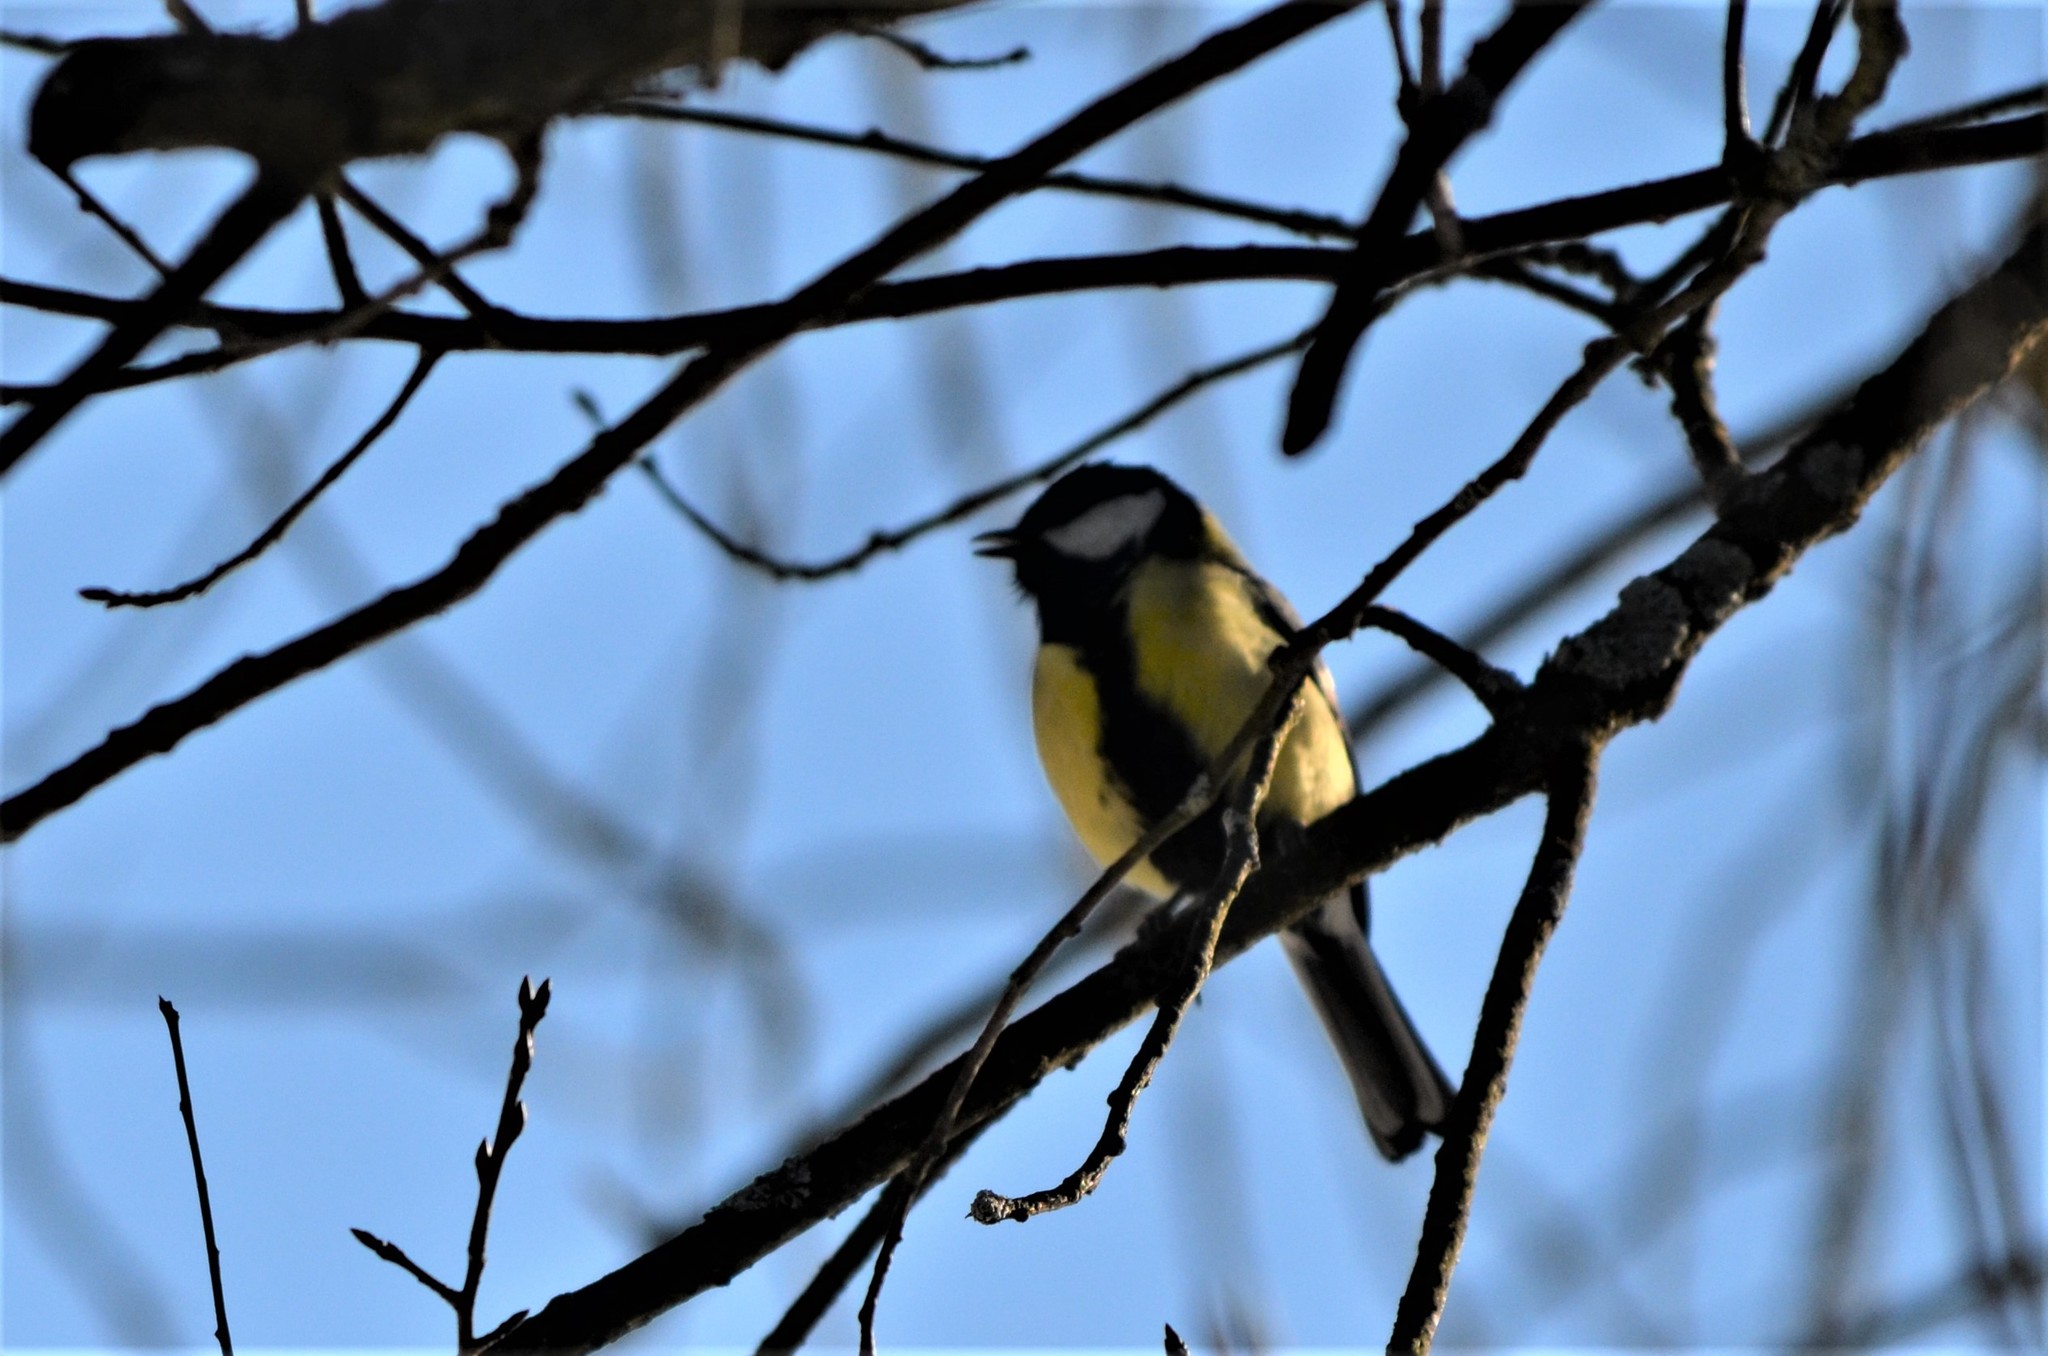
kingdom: Animalia
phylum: Chordata
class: Aves
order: Passeriformes
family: Paridae
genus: Parus
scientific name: Parus major
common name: Great tit
